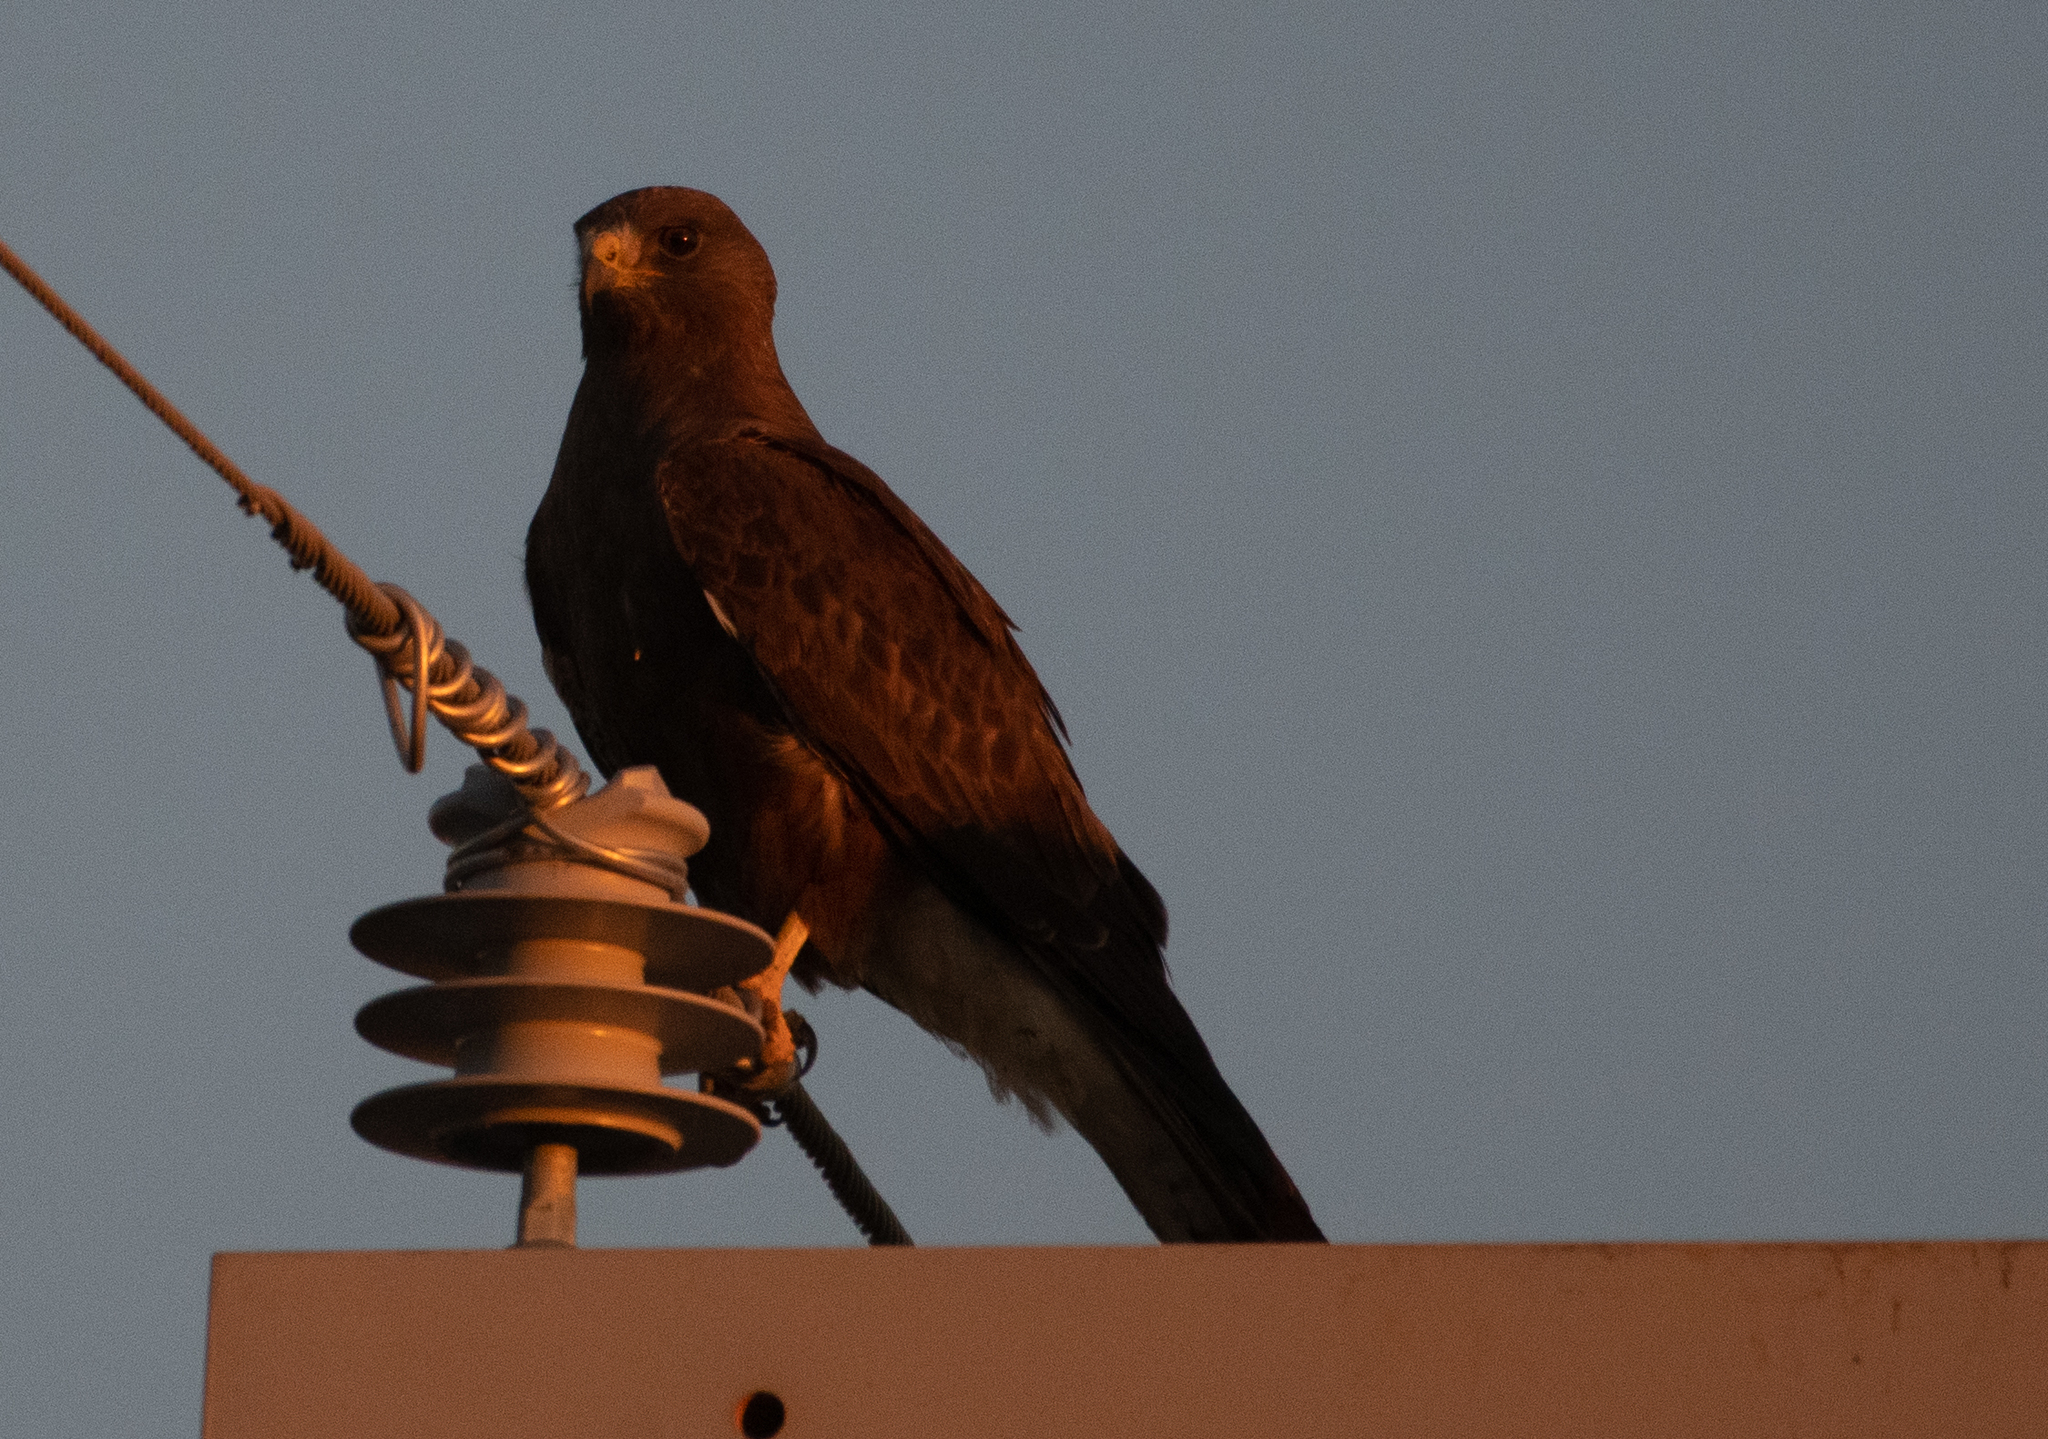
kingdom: Animalia
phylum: Chordata
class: Aves
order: Accipitriformes
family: Accipitridae
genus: Buteo
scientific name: Buteo swainsoni
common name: Swainson's hawk
